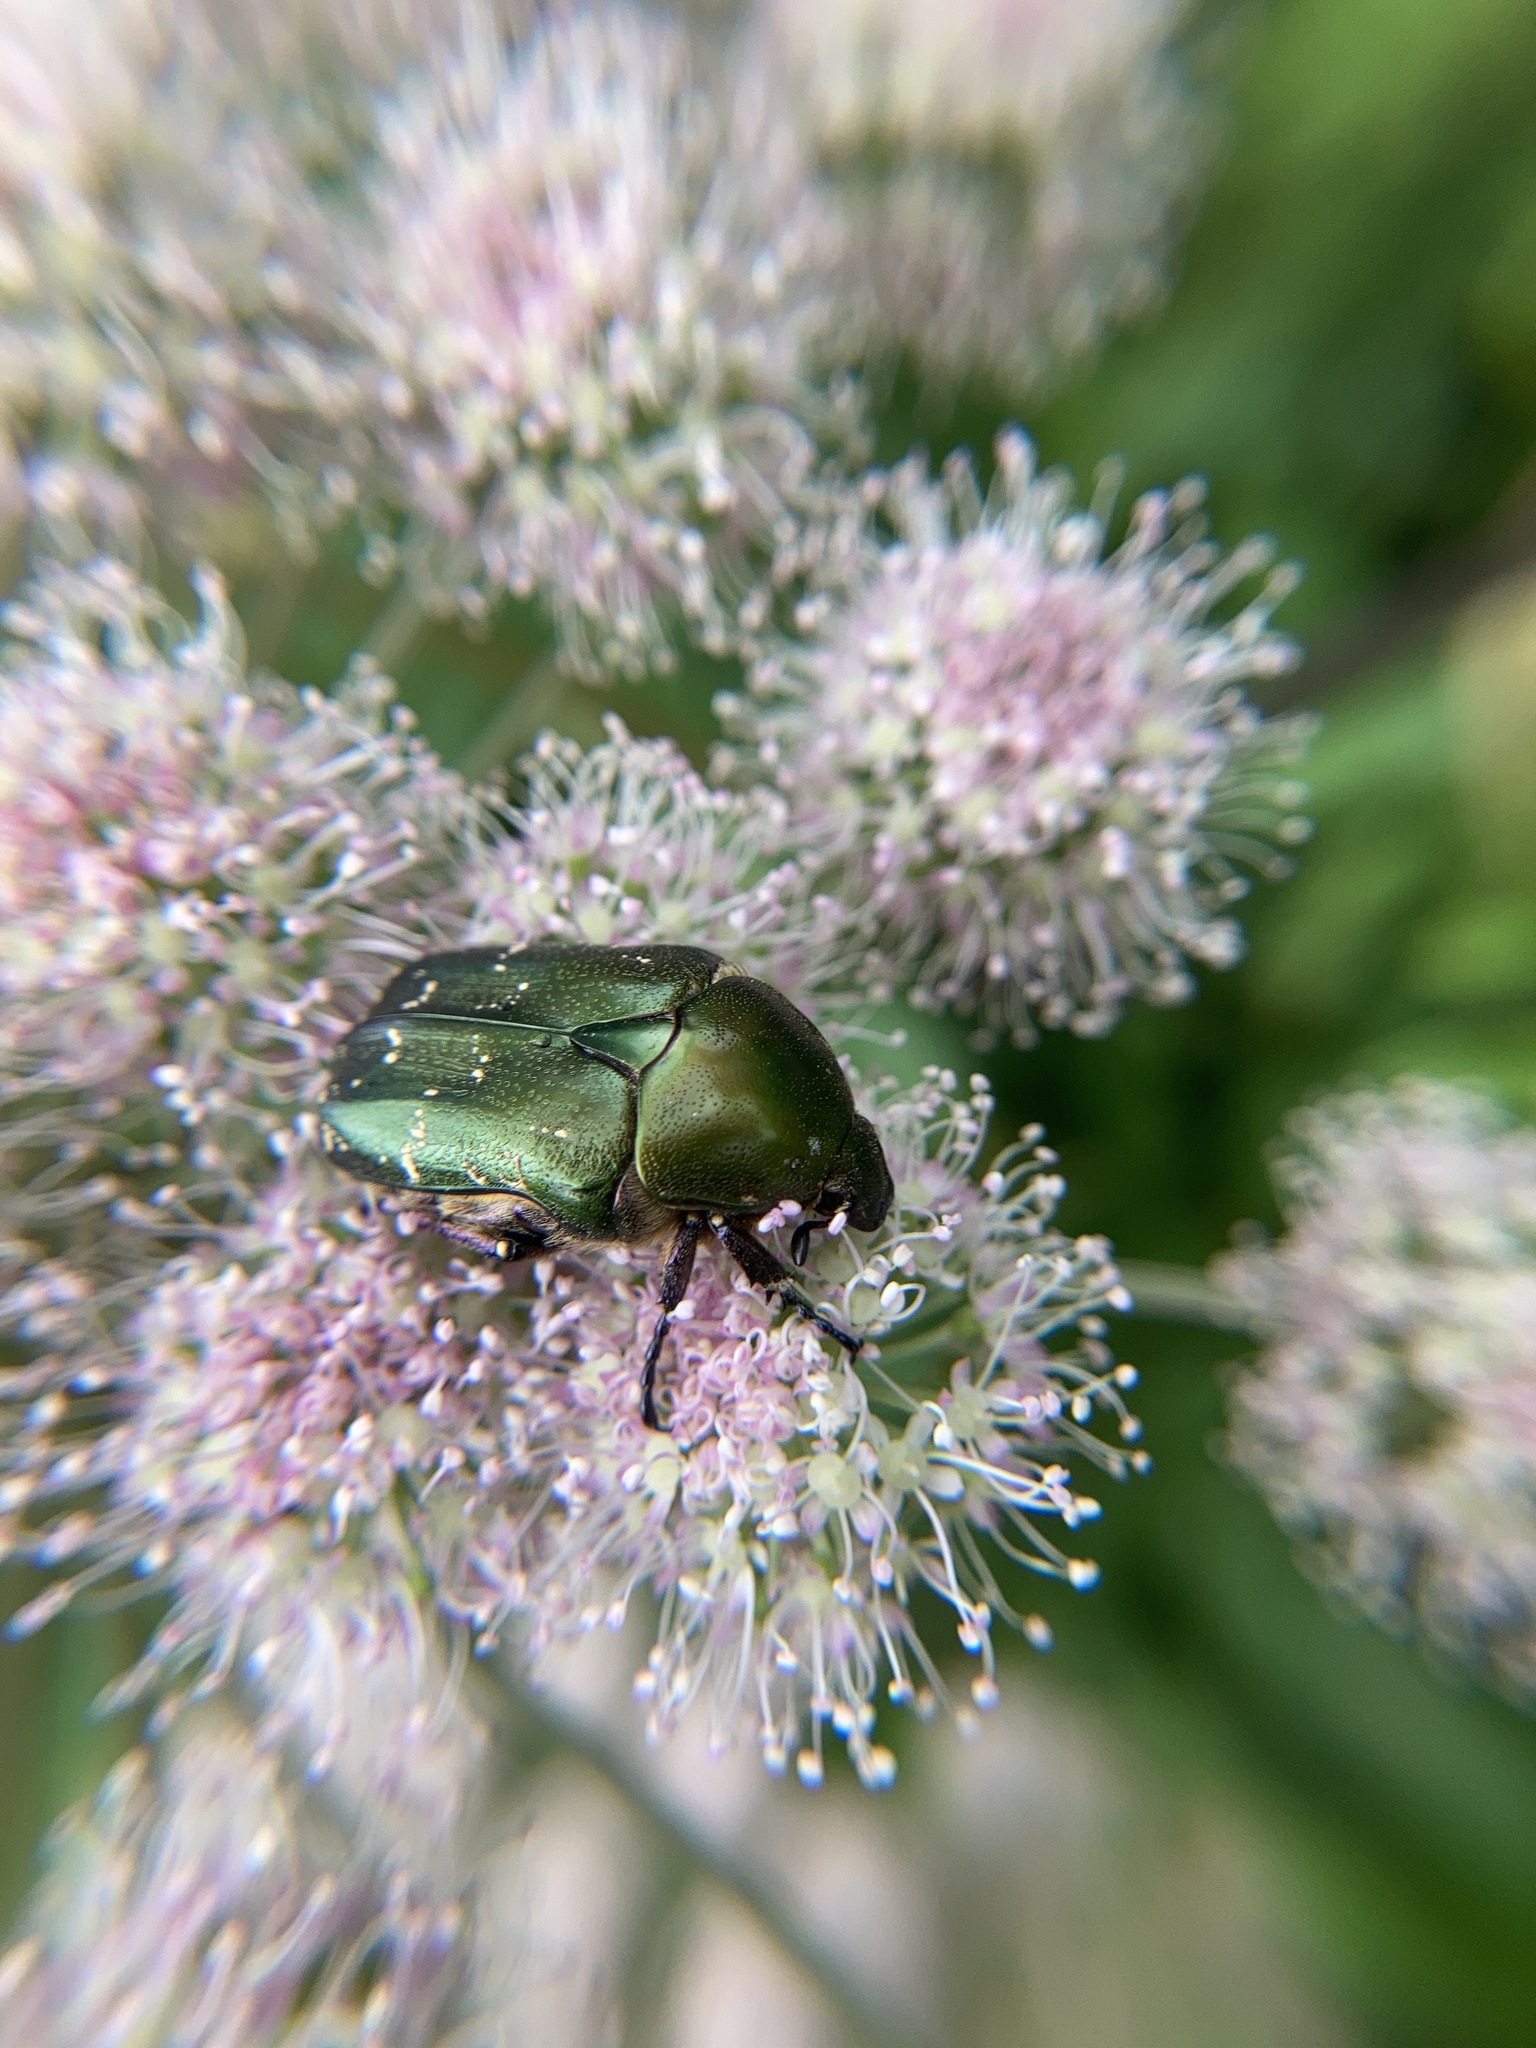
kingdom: Animalia
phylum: Arthropoda
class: Insecta
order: Coleoptera
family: Scarabaeidae
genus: Protaetia
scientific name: Protaetia cuprea
